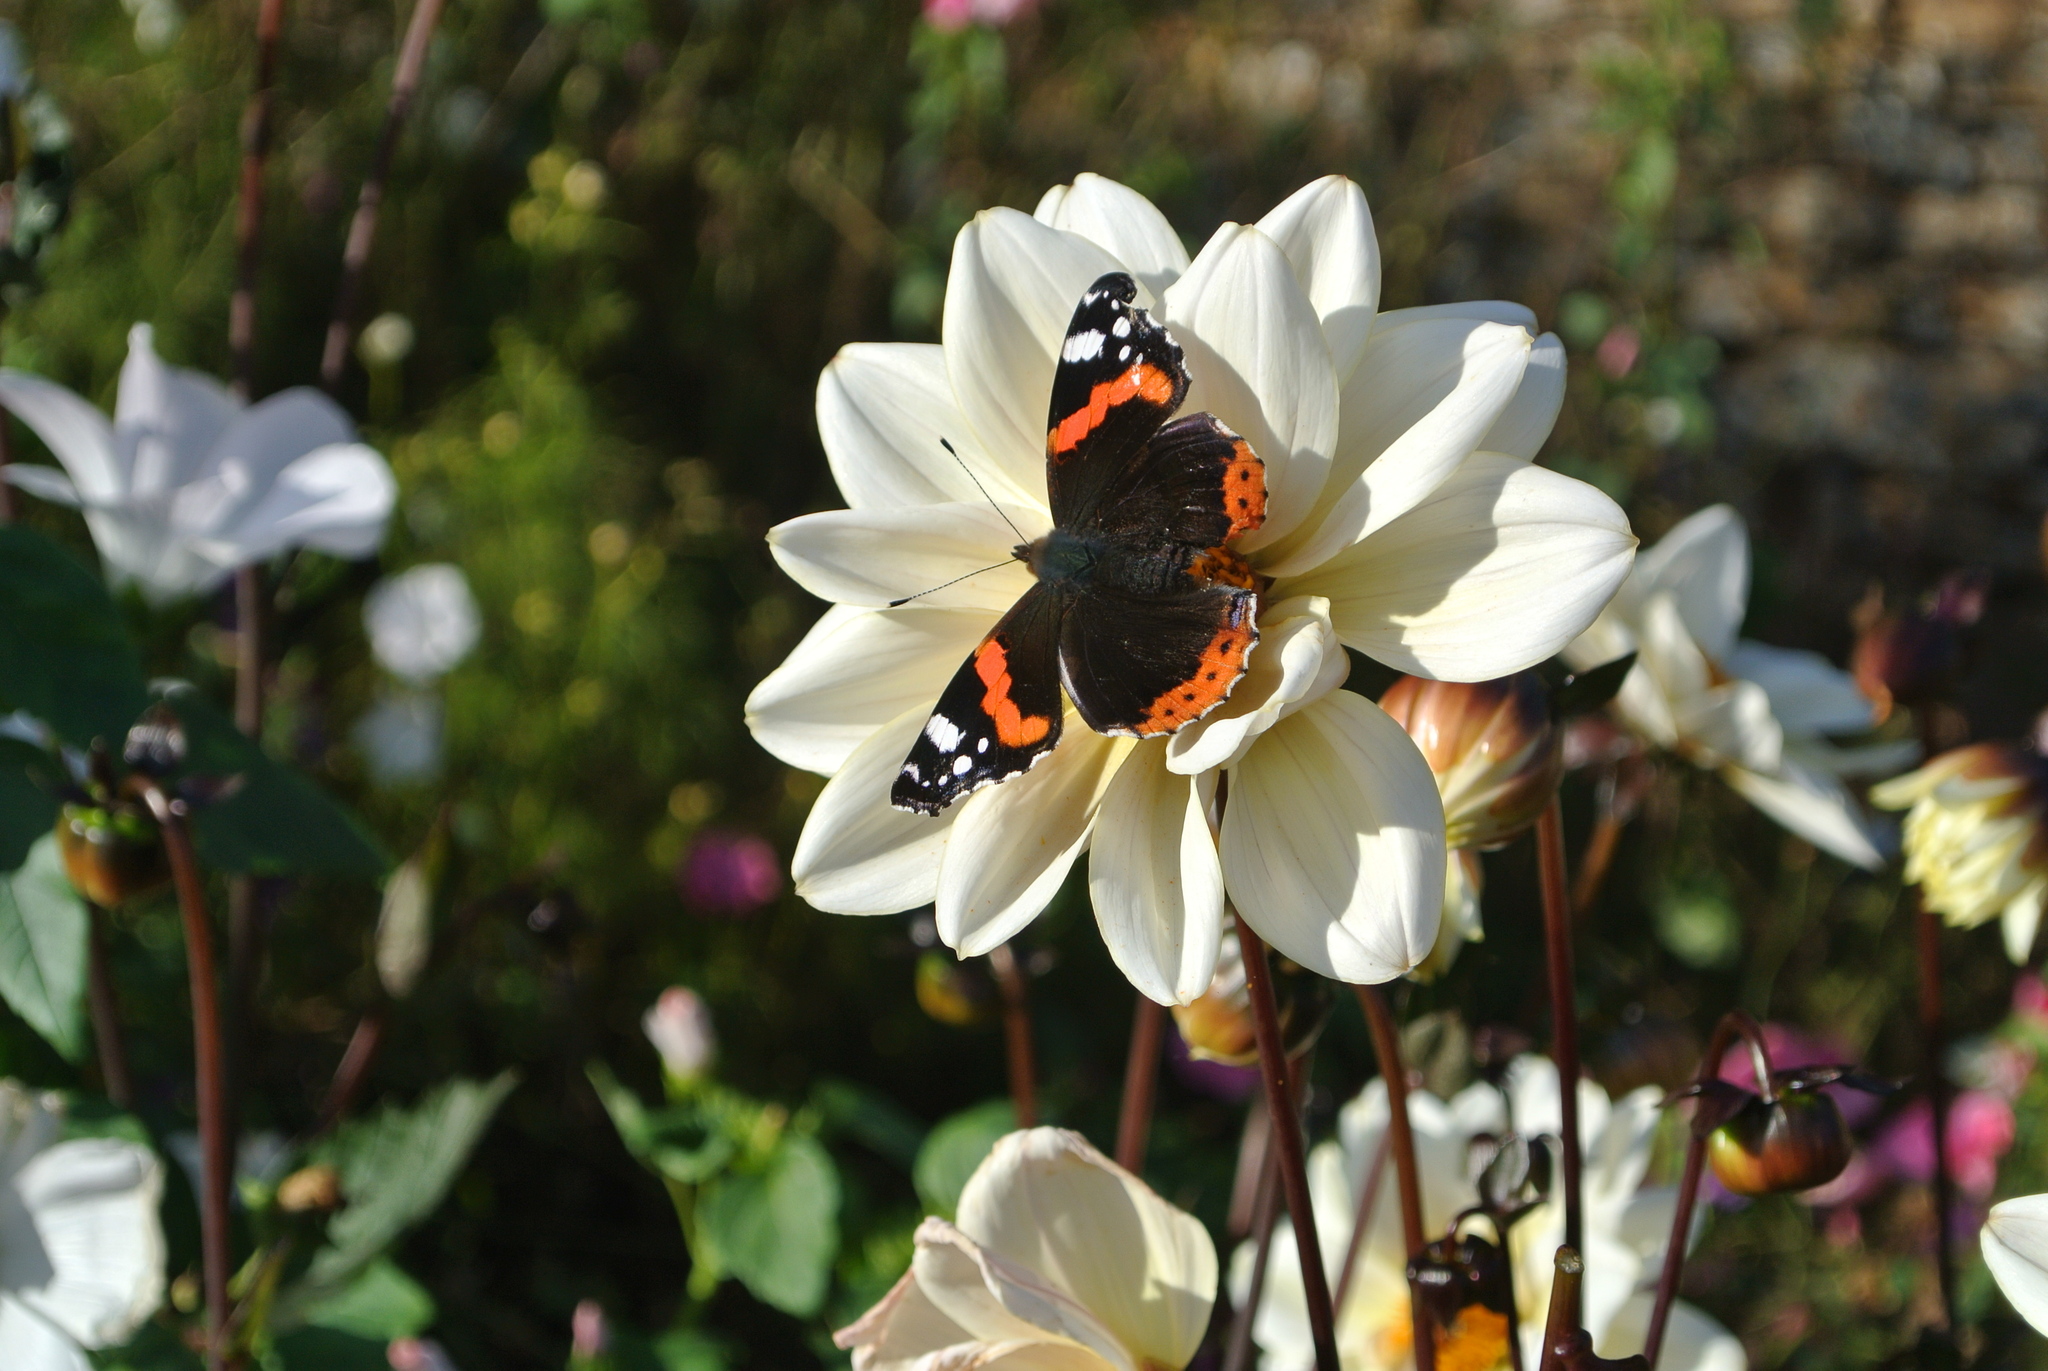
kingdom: Animalia
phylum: Arthropoda
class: Insecta
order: Lepidoptera
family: Nymphalidae
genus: Vanessa
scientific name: Vanessa atalanta
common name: Red admiral
